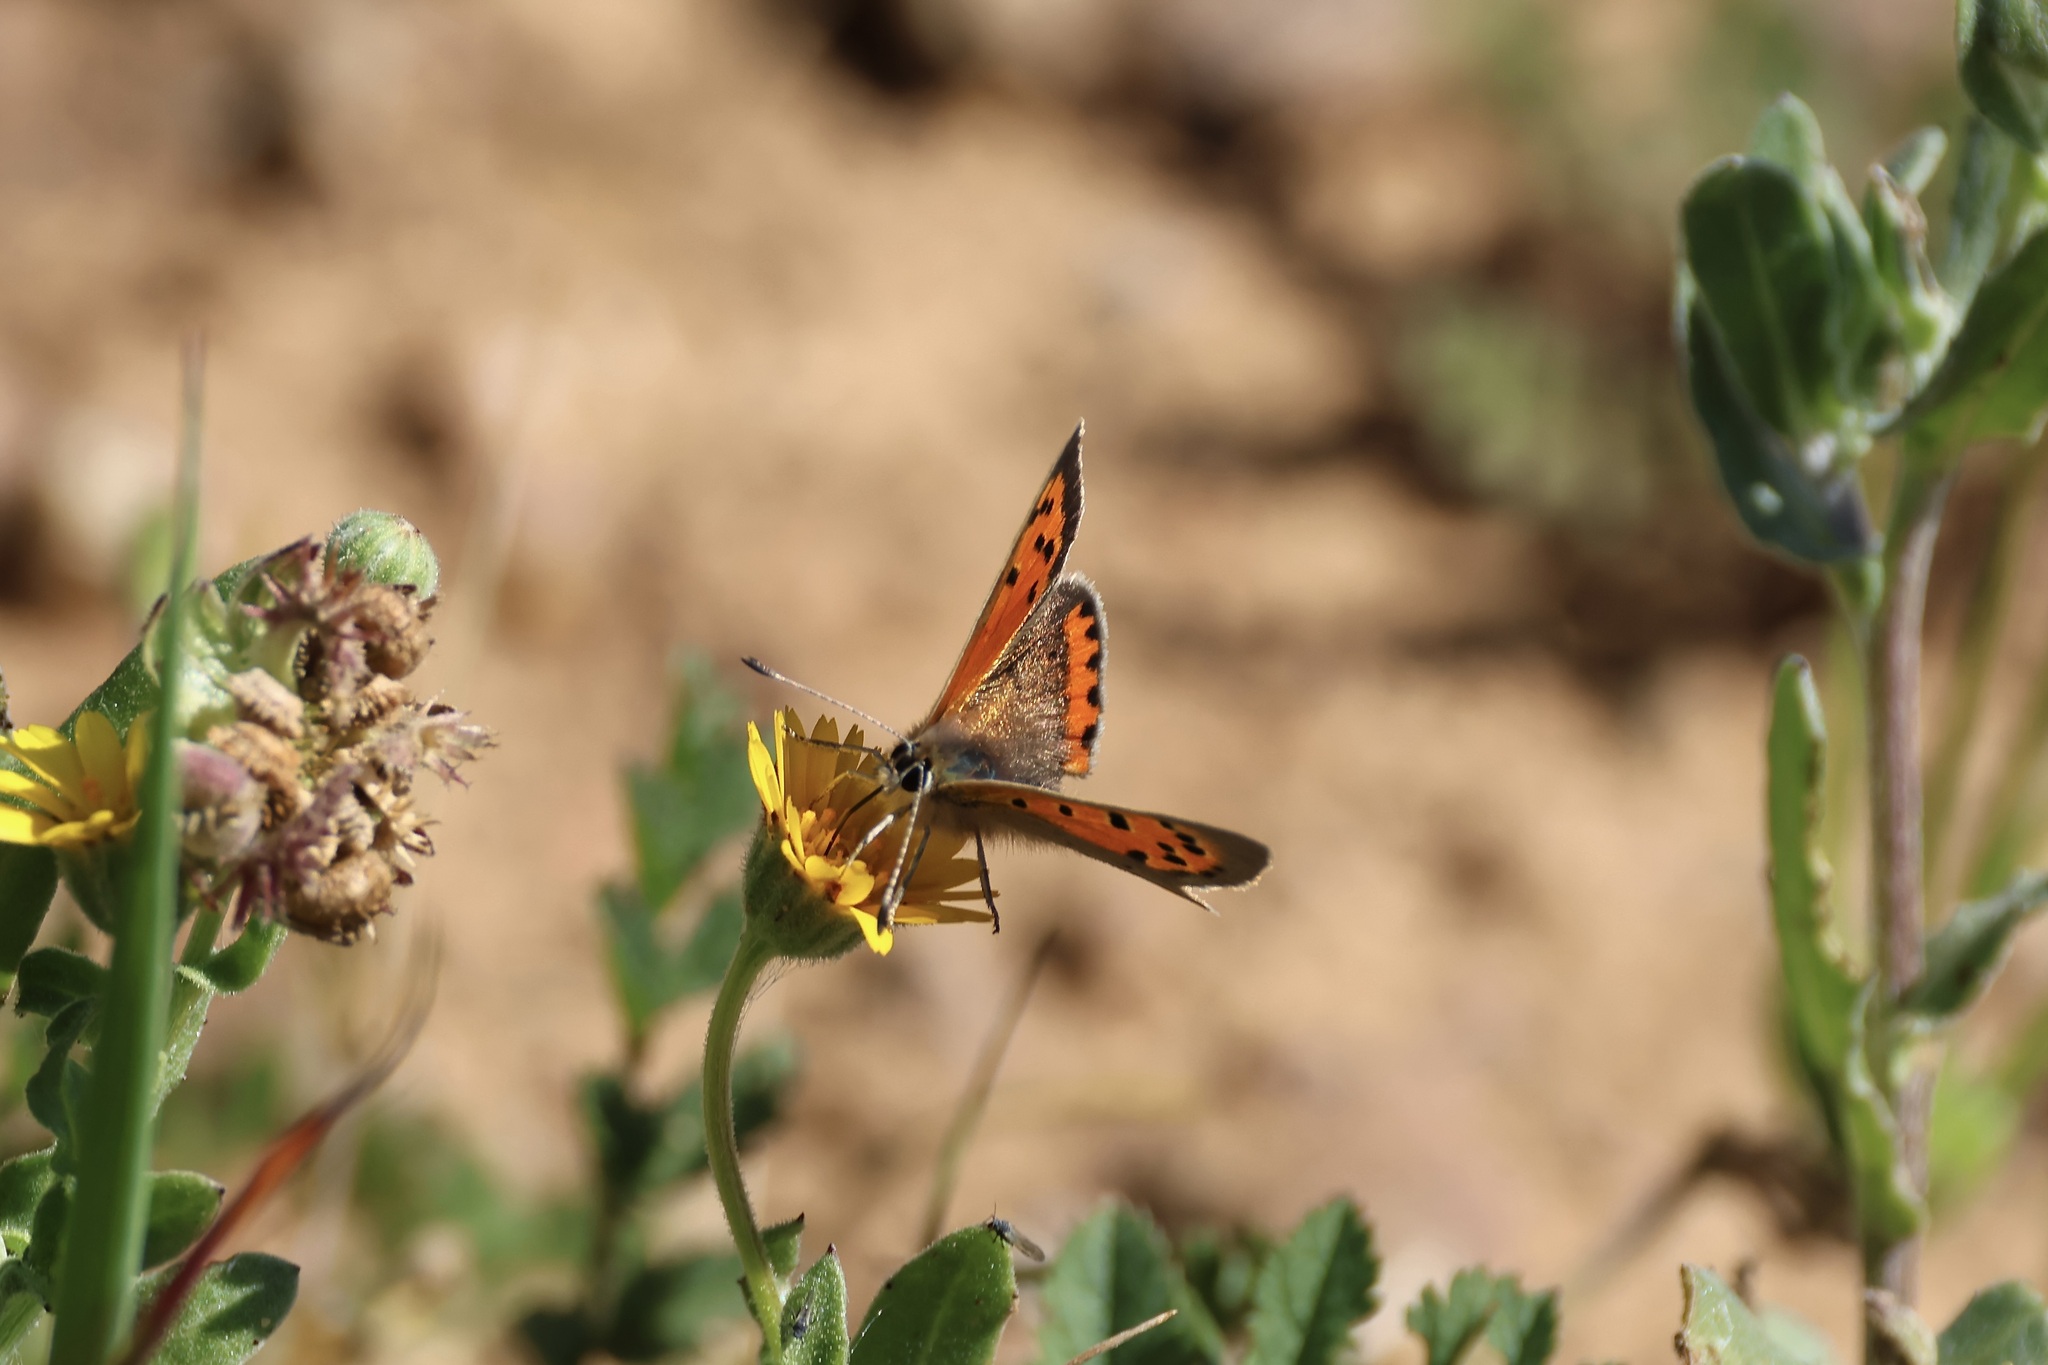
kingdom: Animalia
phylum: Arthropoda
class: Insecta
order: Lepidoptera
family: Lycaenidae
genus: Lycaena
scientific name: Lycaena phlaeas
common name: Small copper
